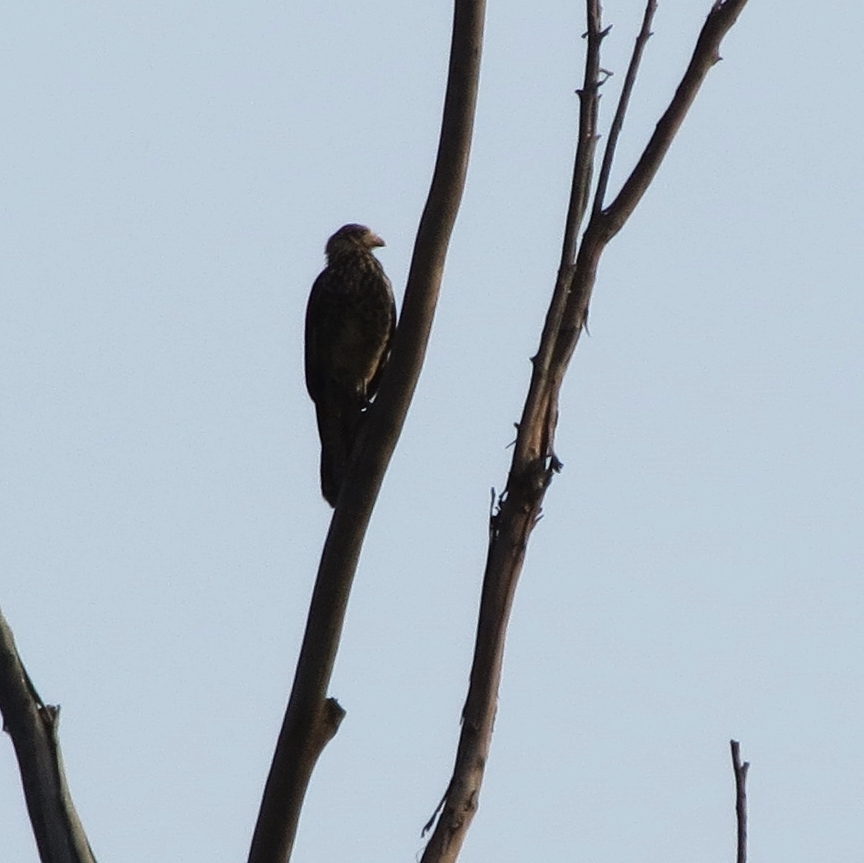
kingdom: Animalia
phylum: Chordata
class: Aves
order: Falconiformes
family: Falconidae
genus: Daptrius
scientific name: Daptrius
